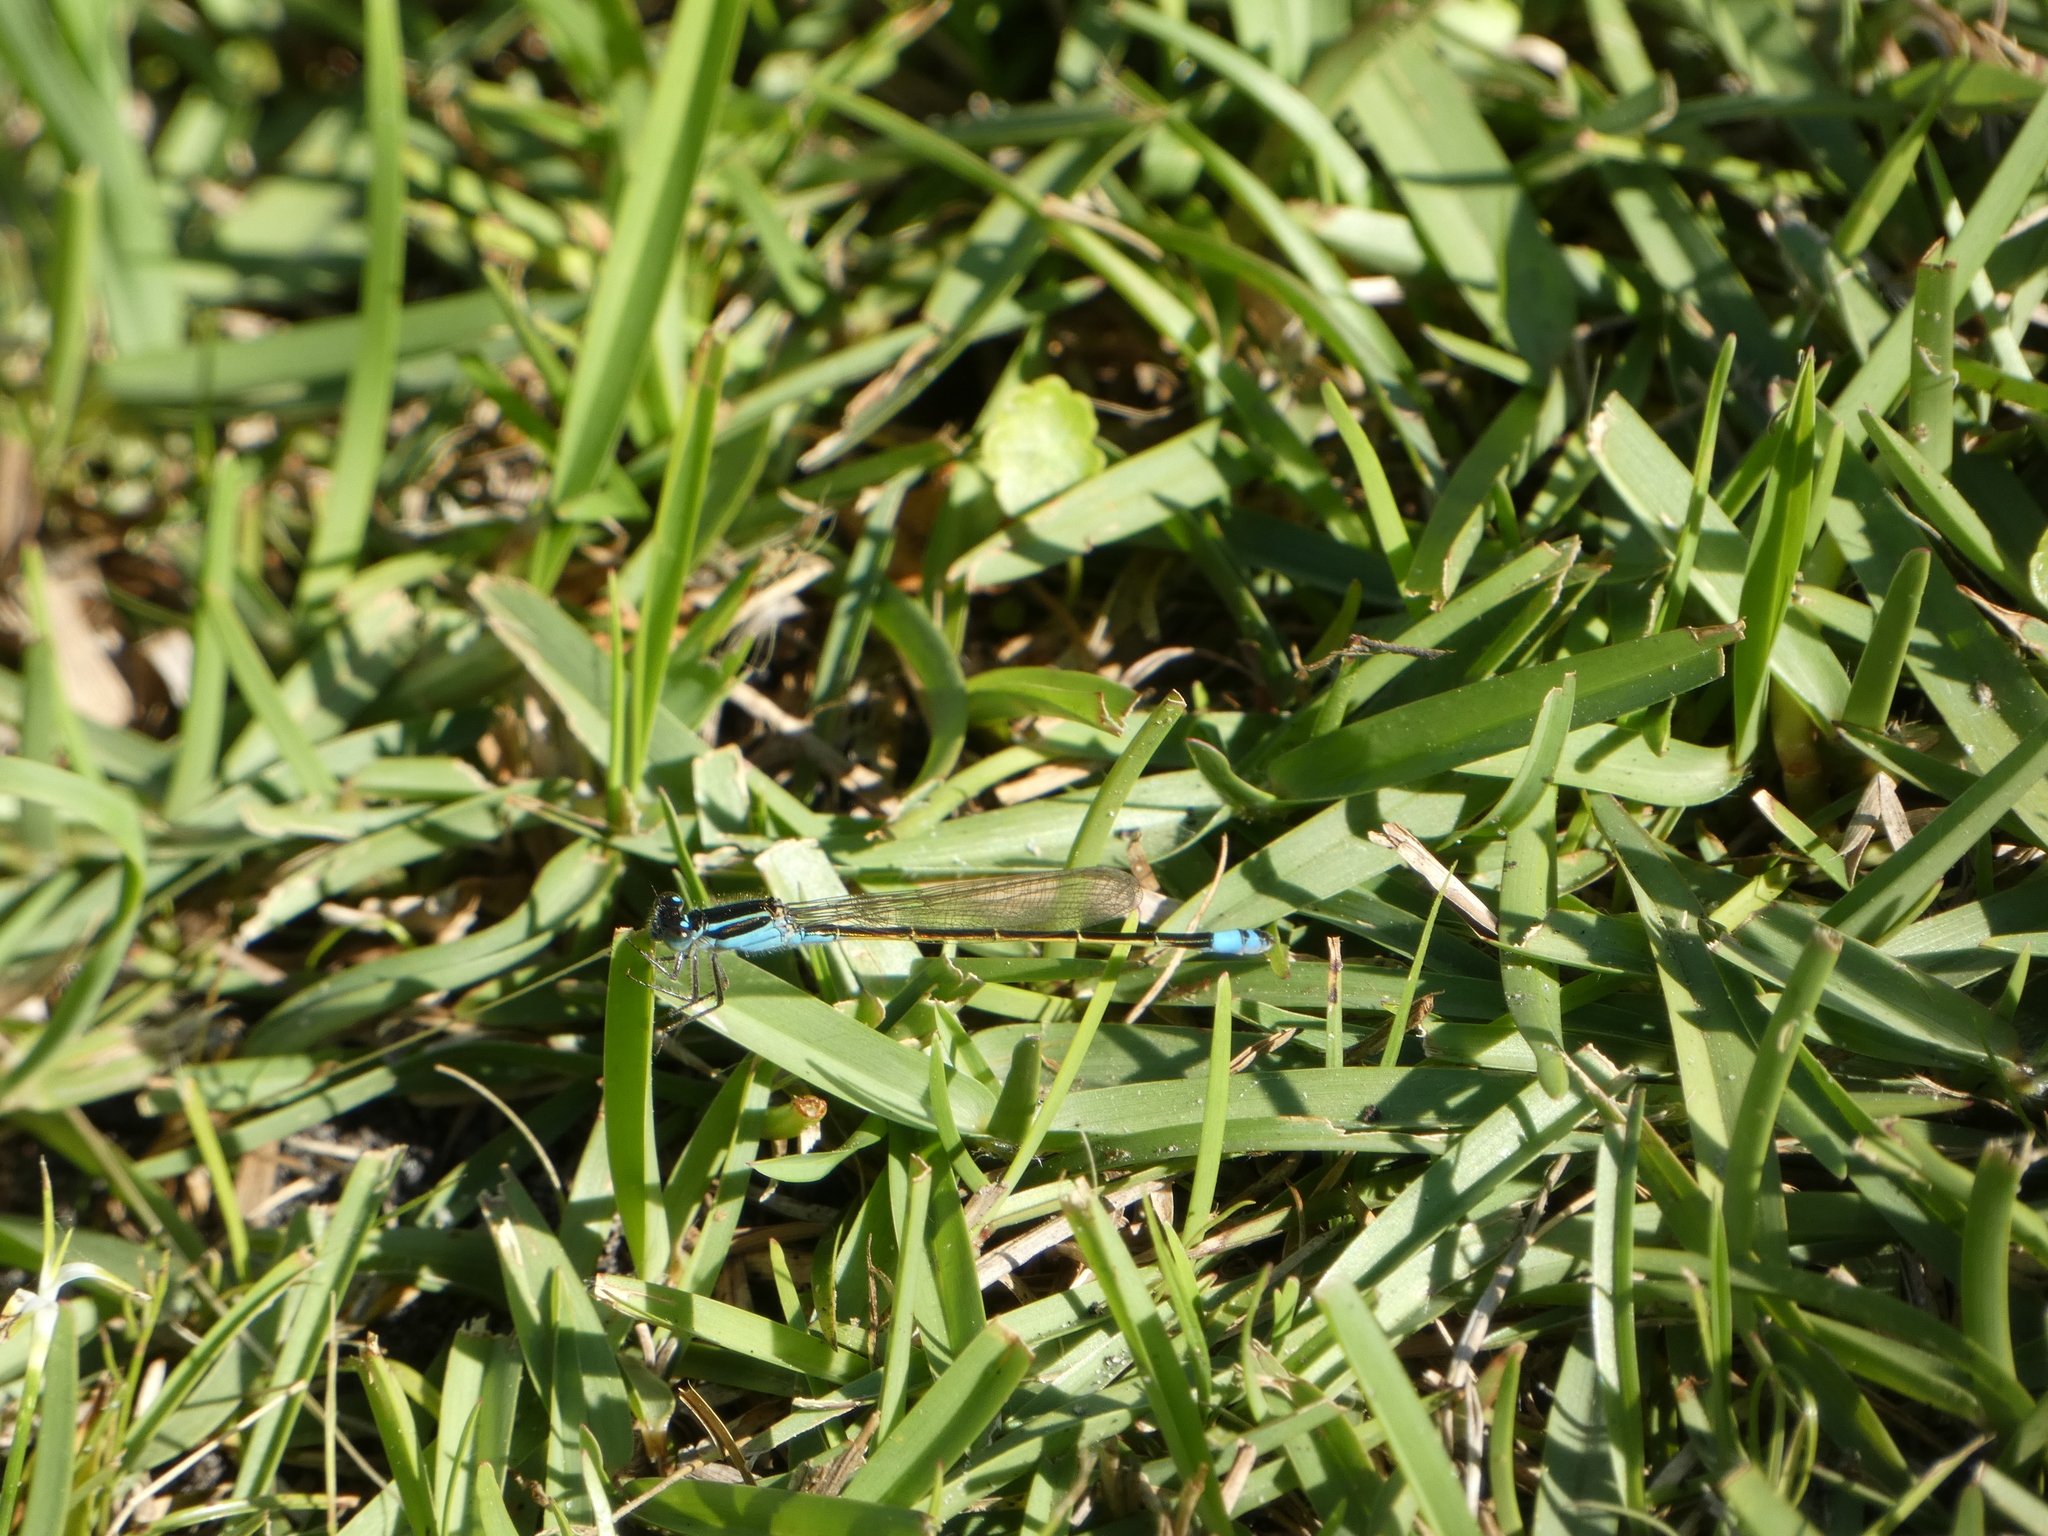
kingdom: Animalia
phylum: Arthropoda
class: Insecta
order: Odonata
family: Coenagrionidae
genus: Ischnura
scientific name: Ischnura ramburii
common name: Rambur's forktail
